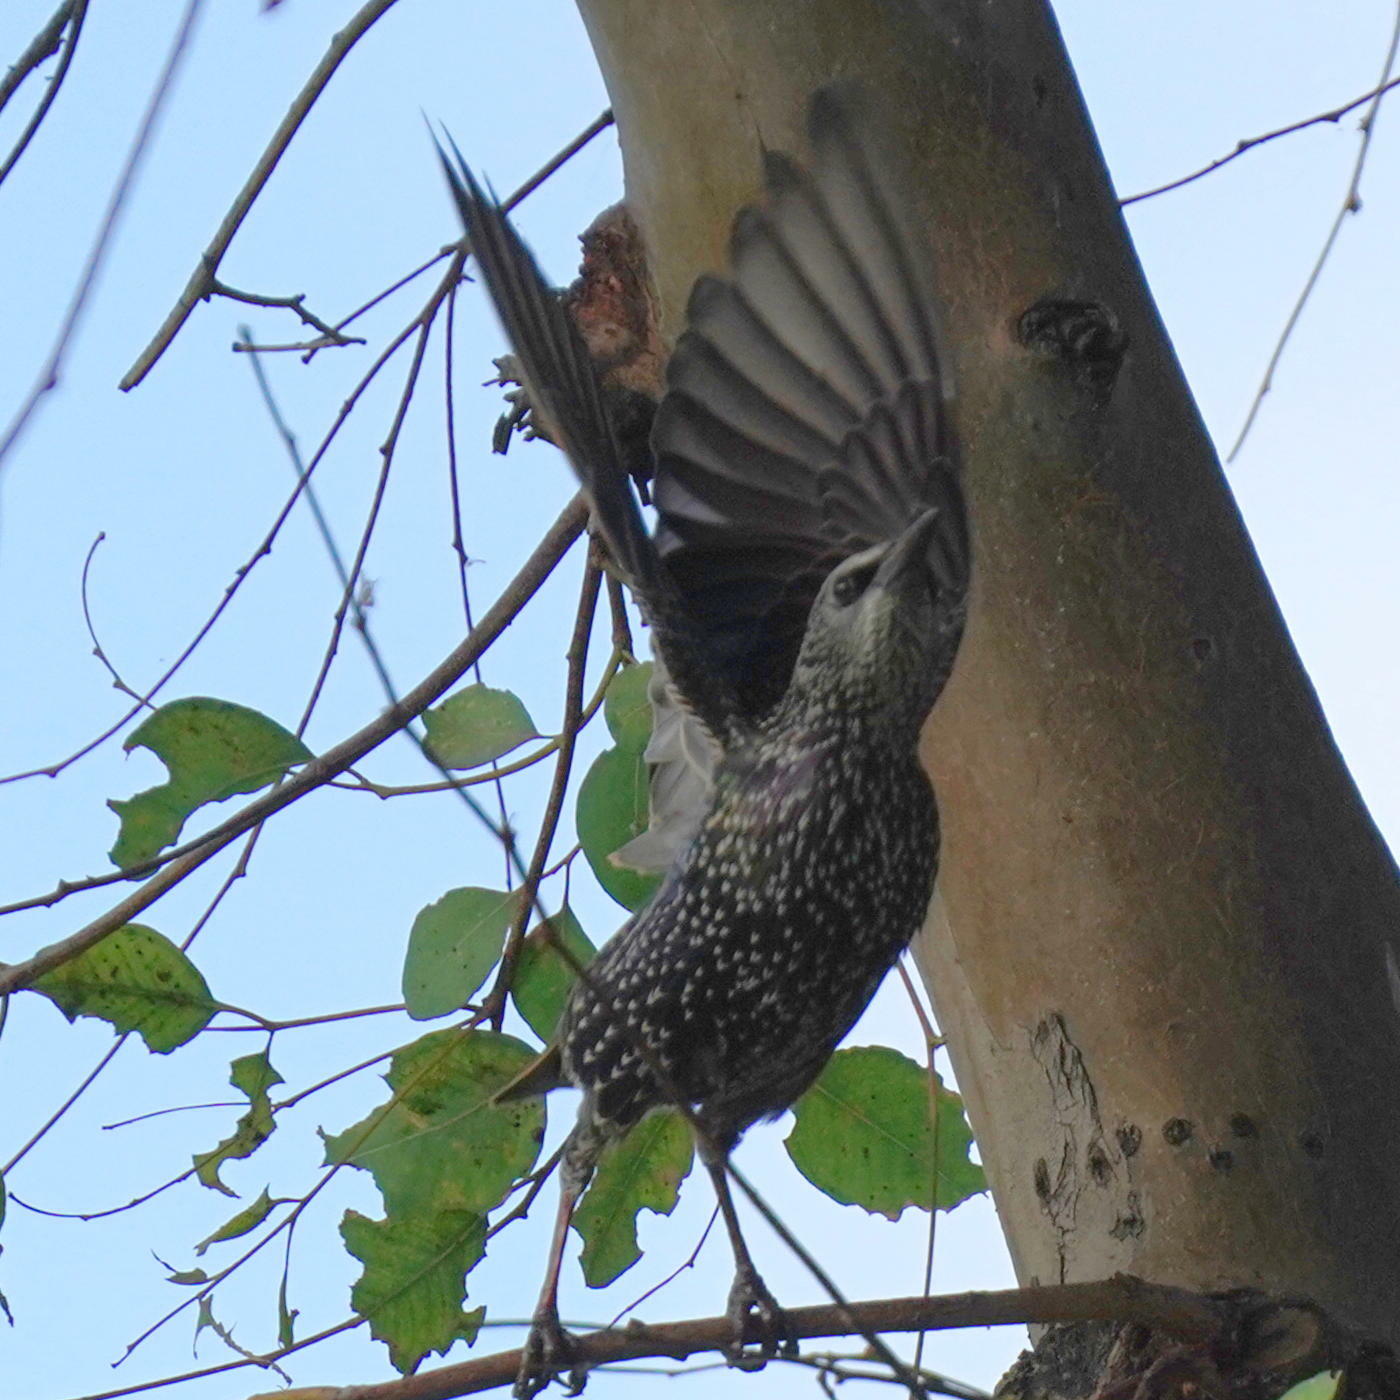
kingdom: Animalia
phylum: Chordata
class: Aves
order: Passeriformes
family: Sturnidae
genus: Sturnus
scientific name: Sturnus vulgaris
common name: Common starling
